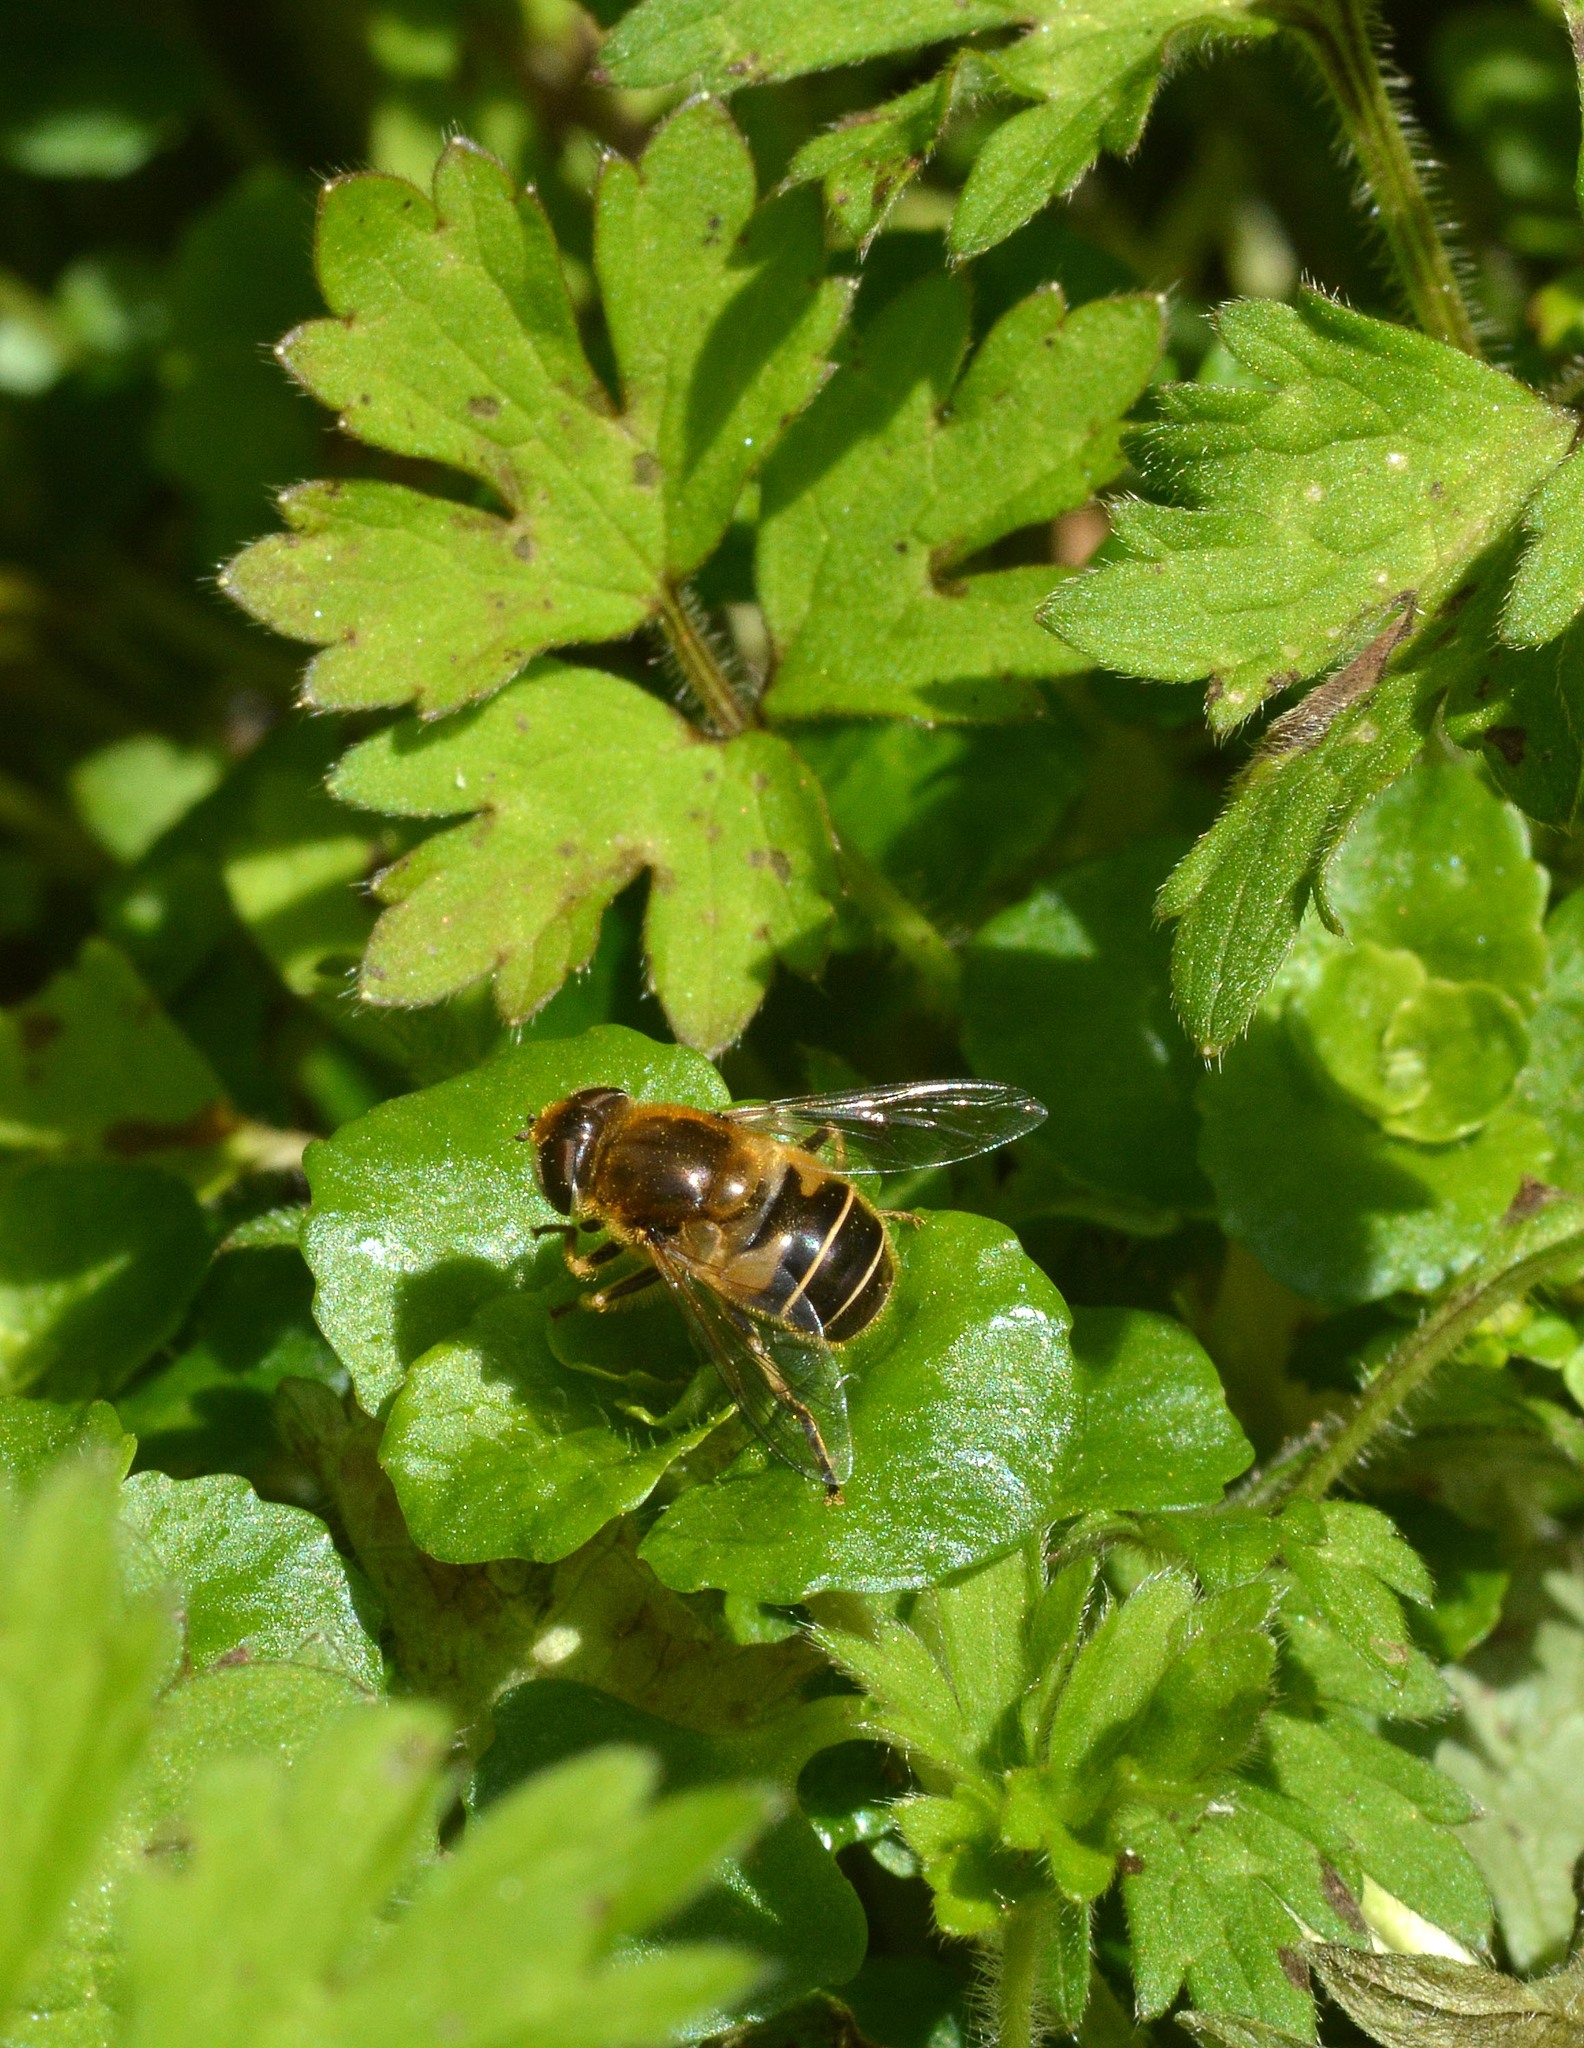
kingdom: Animalia
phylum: Arthropoda
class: Insecta
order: Diptera
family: Syrphidae
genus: Eristalis
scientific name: Eristalis nemorum
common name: Orange-spined drone fly
